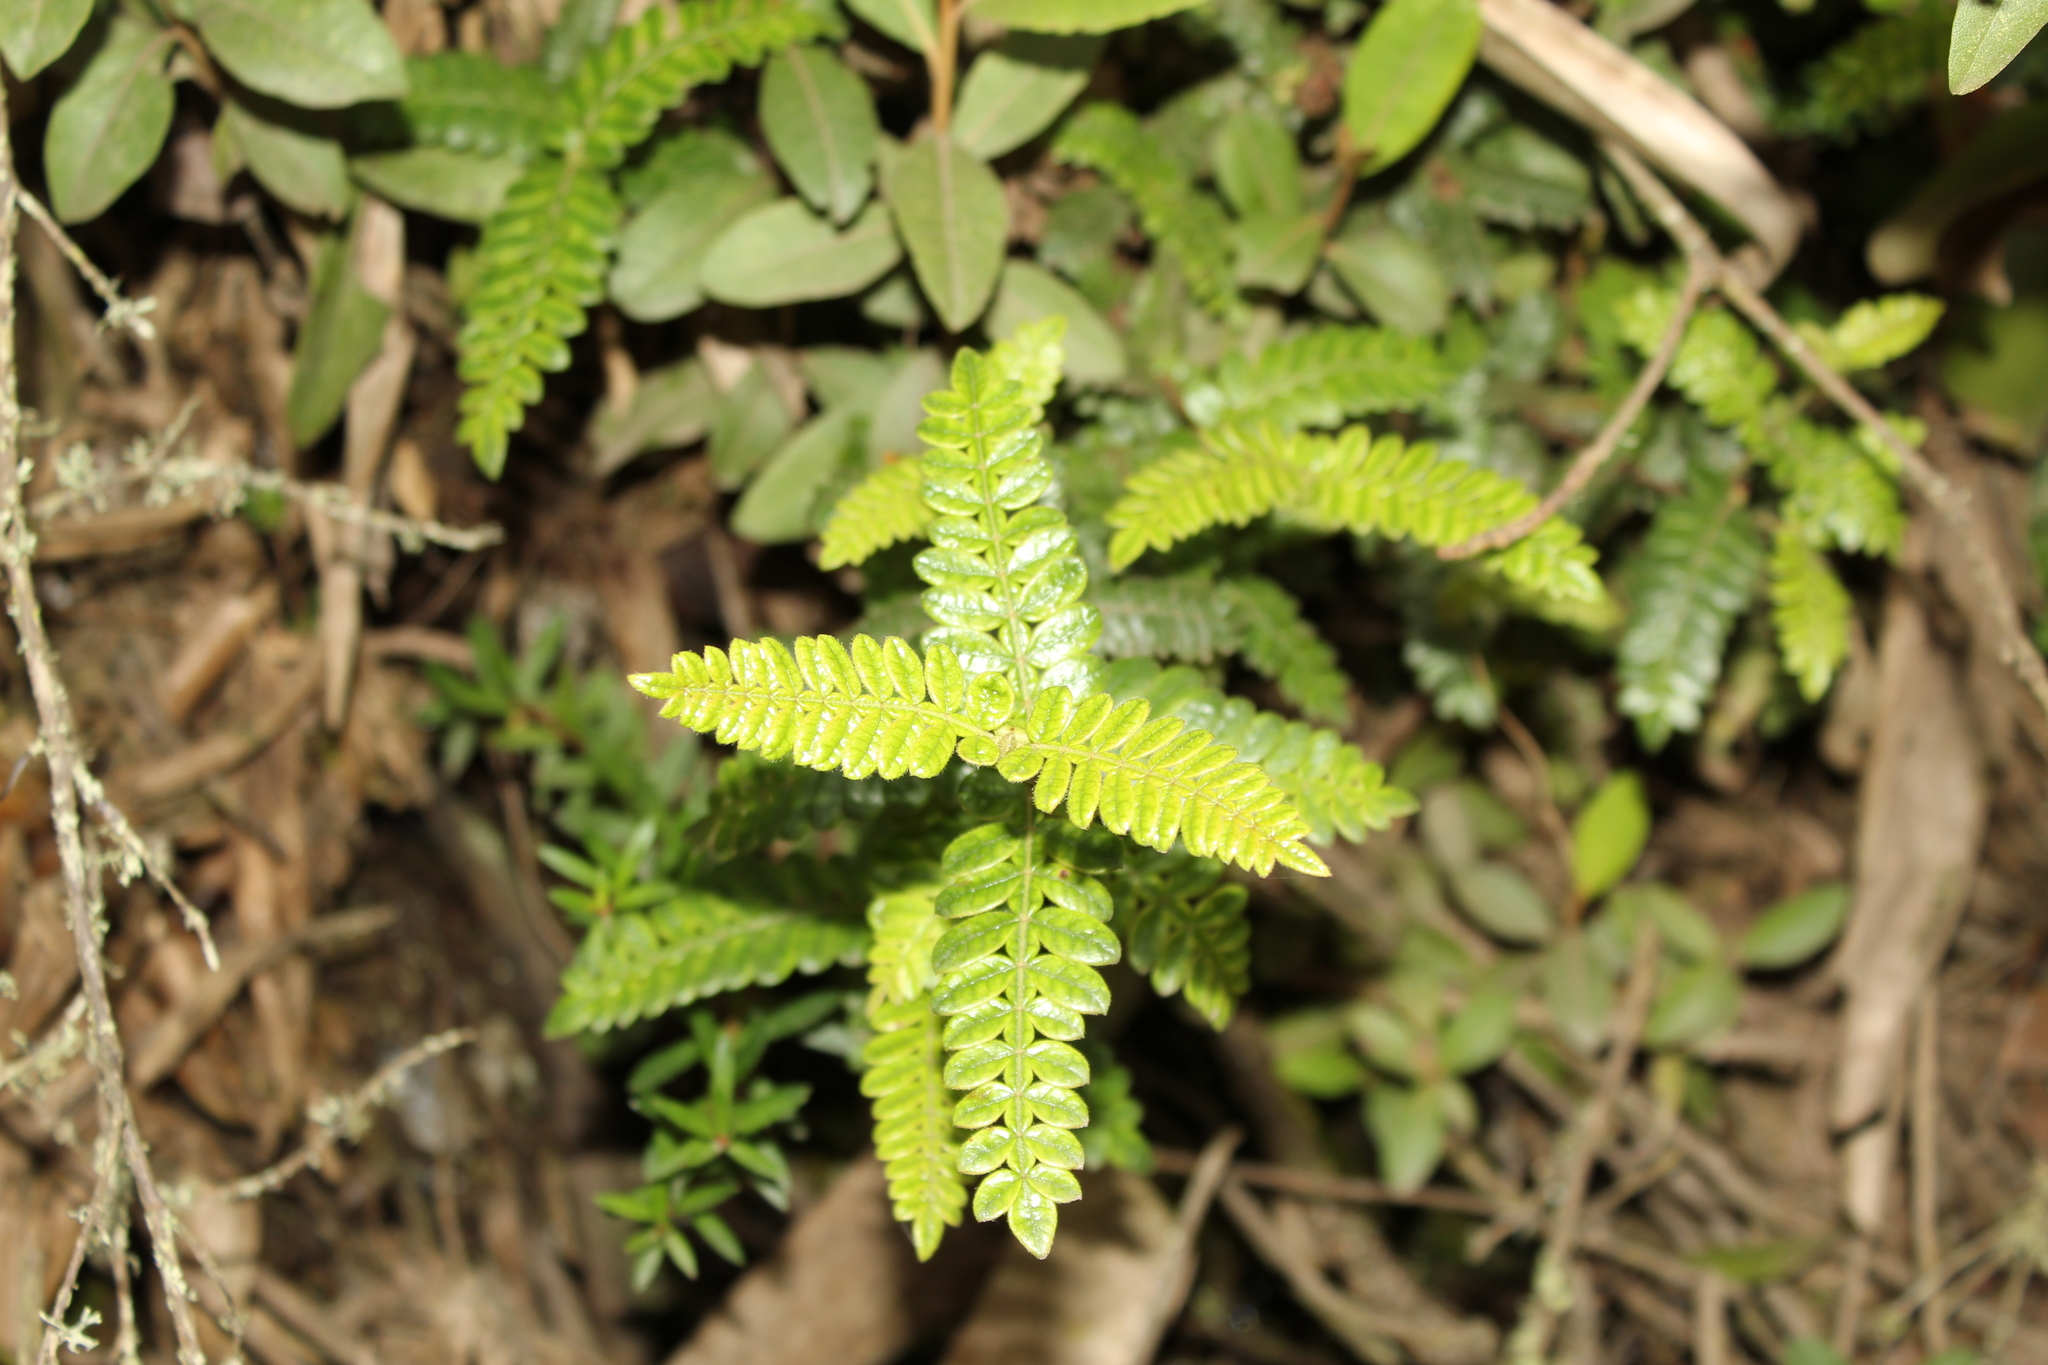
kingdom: Plantae
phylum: Tracheophyta
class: Magnoliopsida
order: Oxalidales
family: Cunoniaceae
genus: Weinmannia
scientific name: Weinmannia tomentosa
